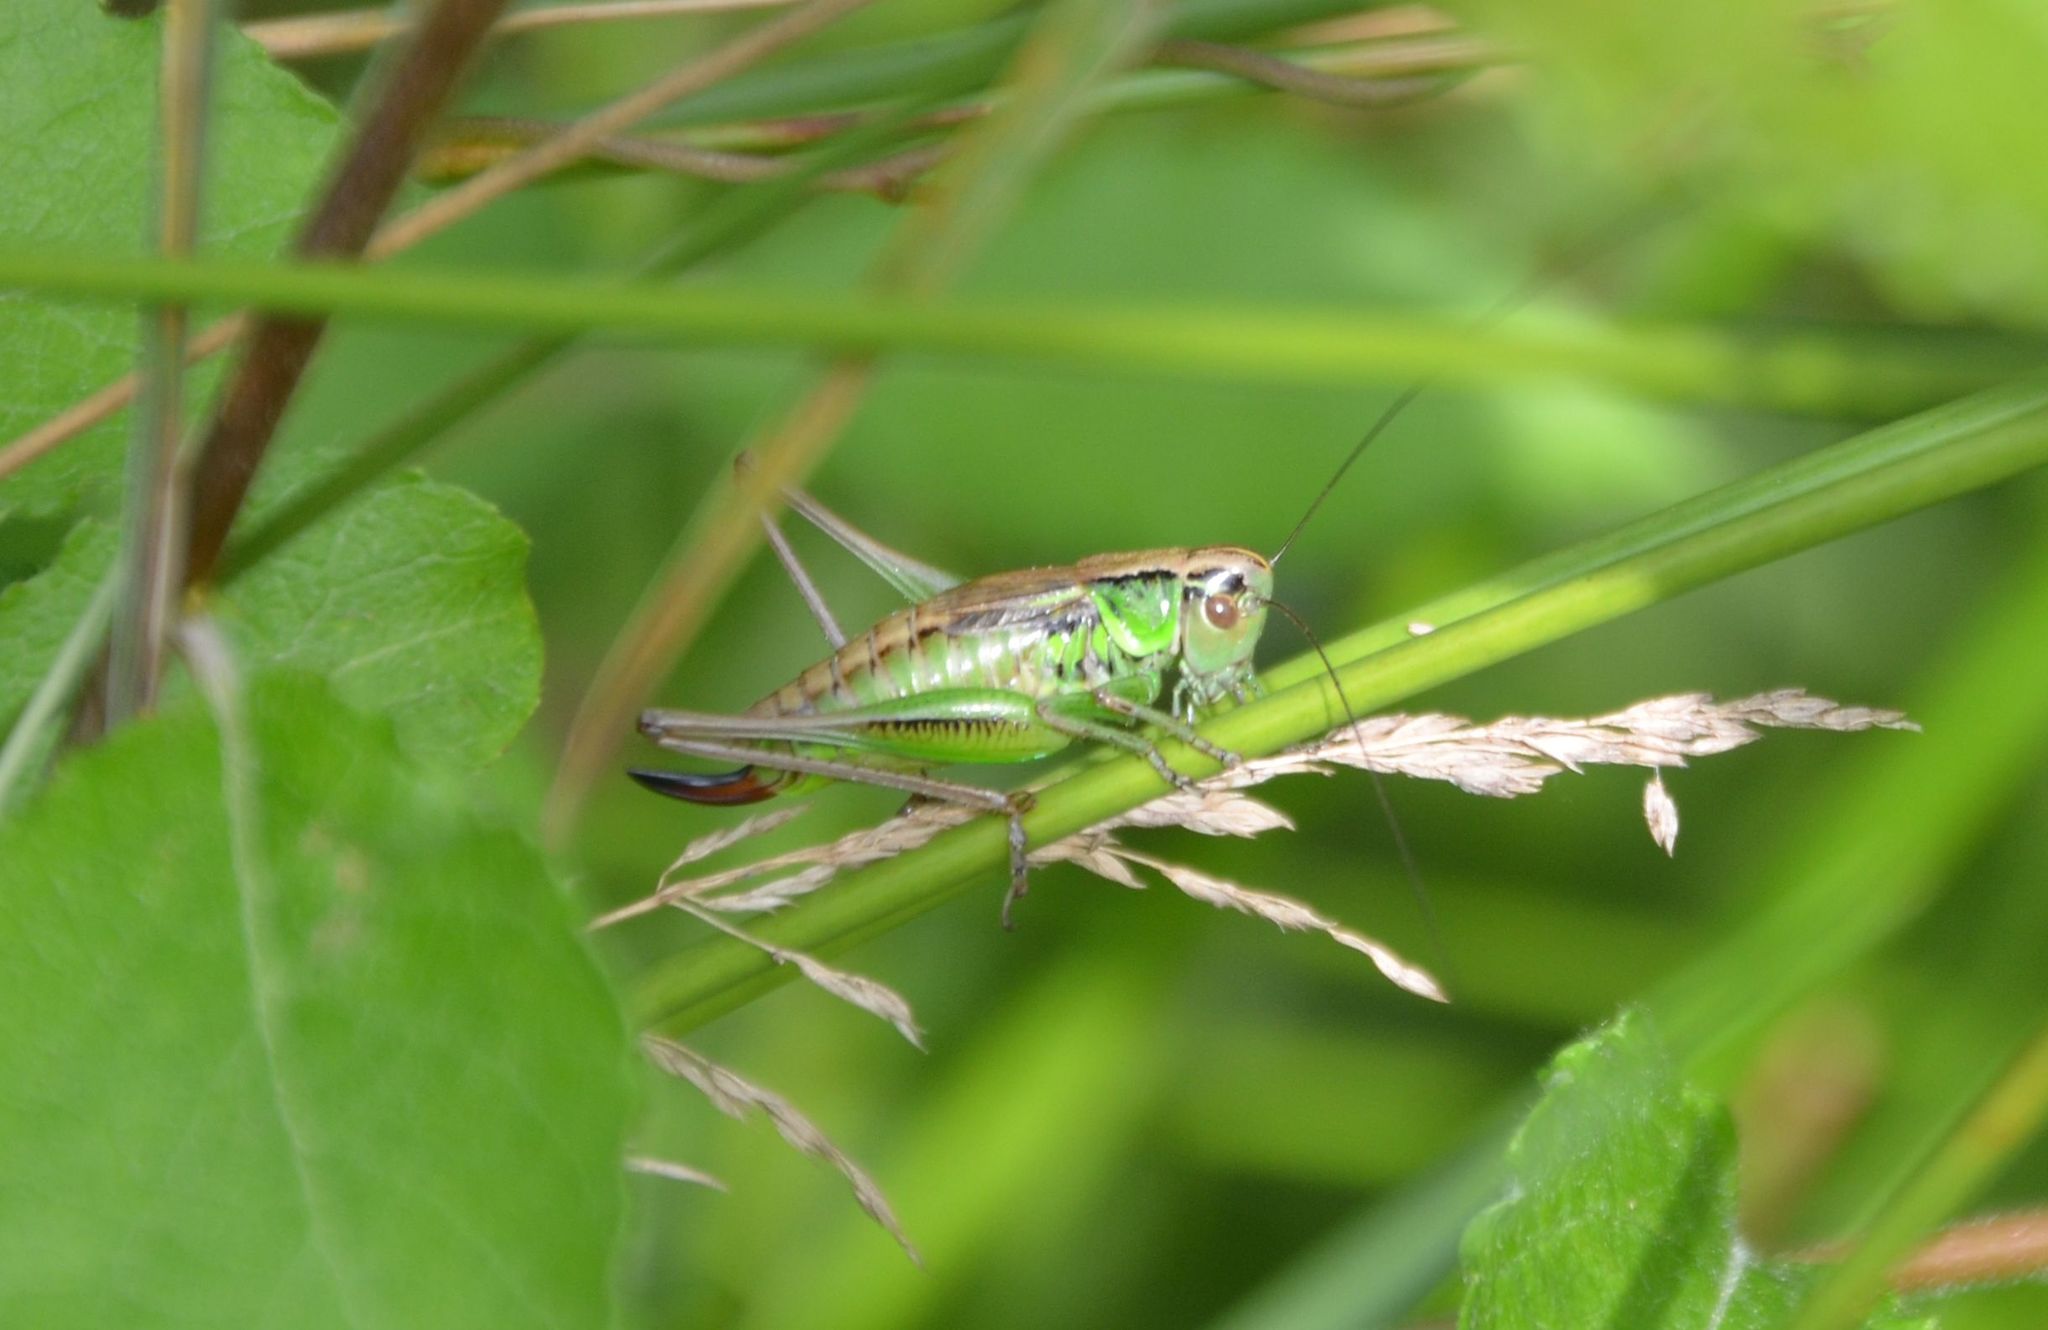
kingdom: Animalia
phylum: Arthropoda
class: Insecta
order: Orthoptera
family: Tettigoniidae
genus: Roeseliana
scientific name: Roeseliana roeselii
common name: Roesel's bush cricket
